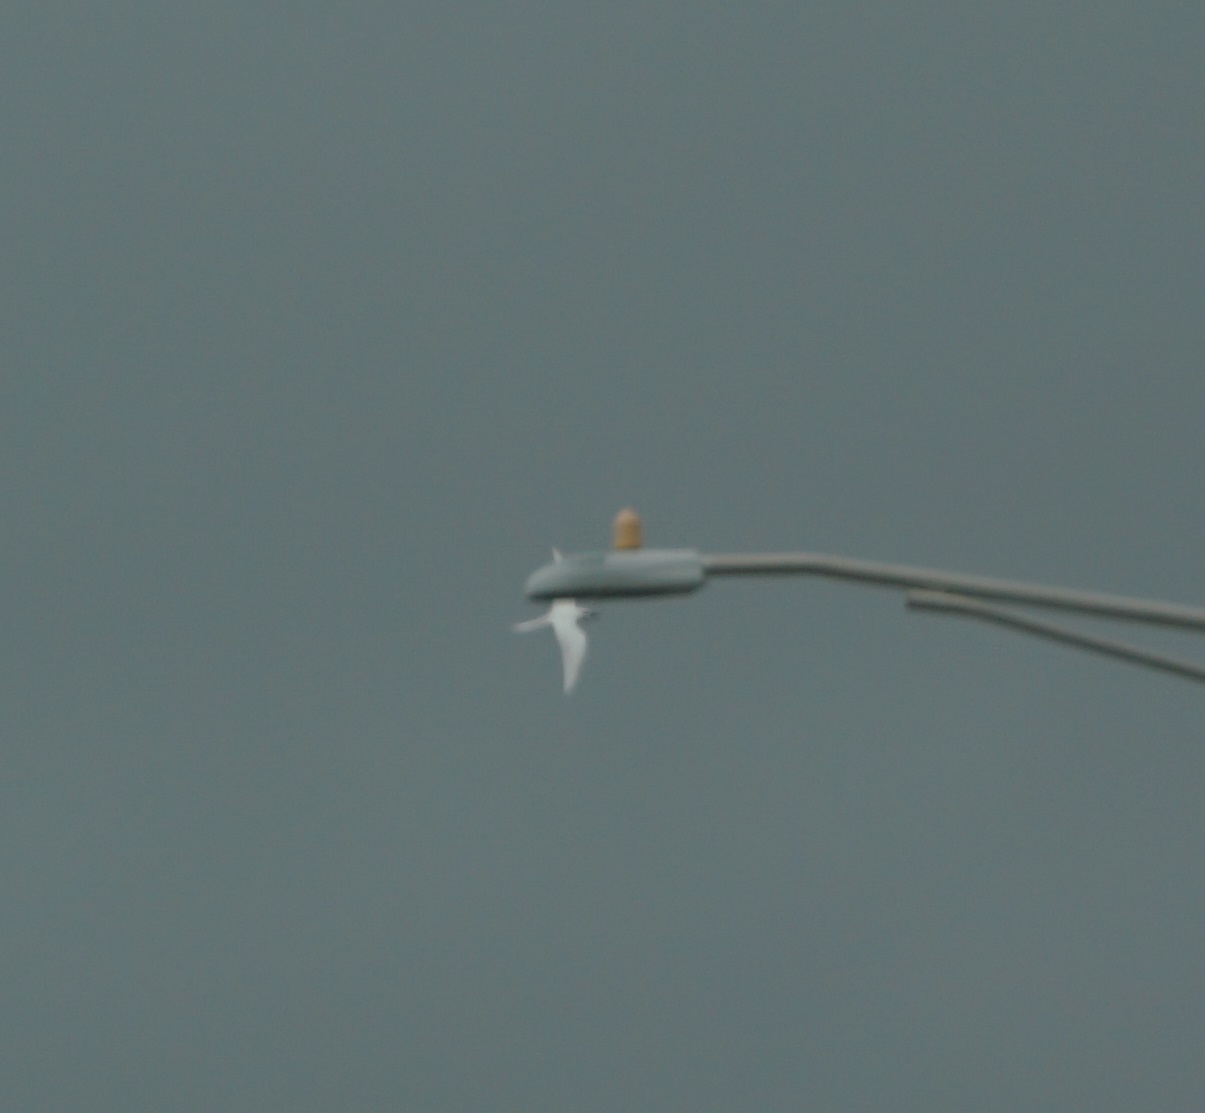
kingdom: Animalia
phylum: Chordata
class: Aves
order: Charadriiformes
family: Laridae
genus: Gygis
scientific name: Gygis alba
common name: White tern
